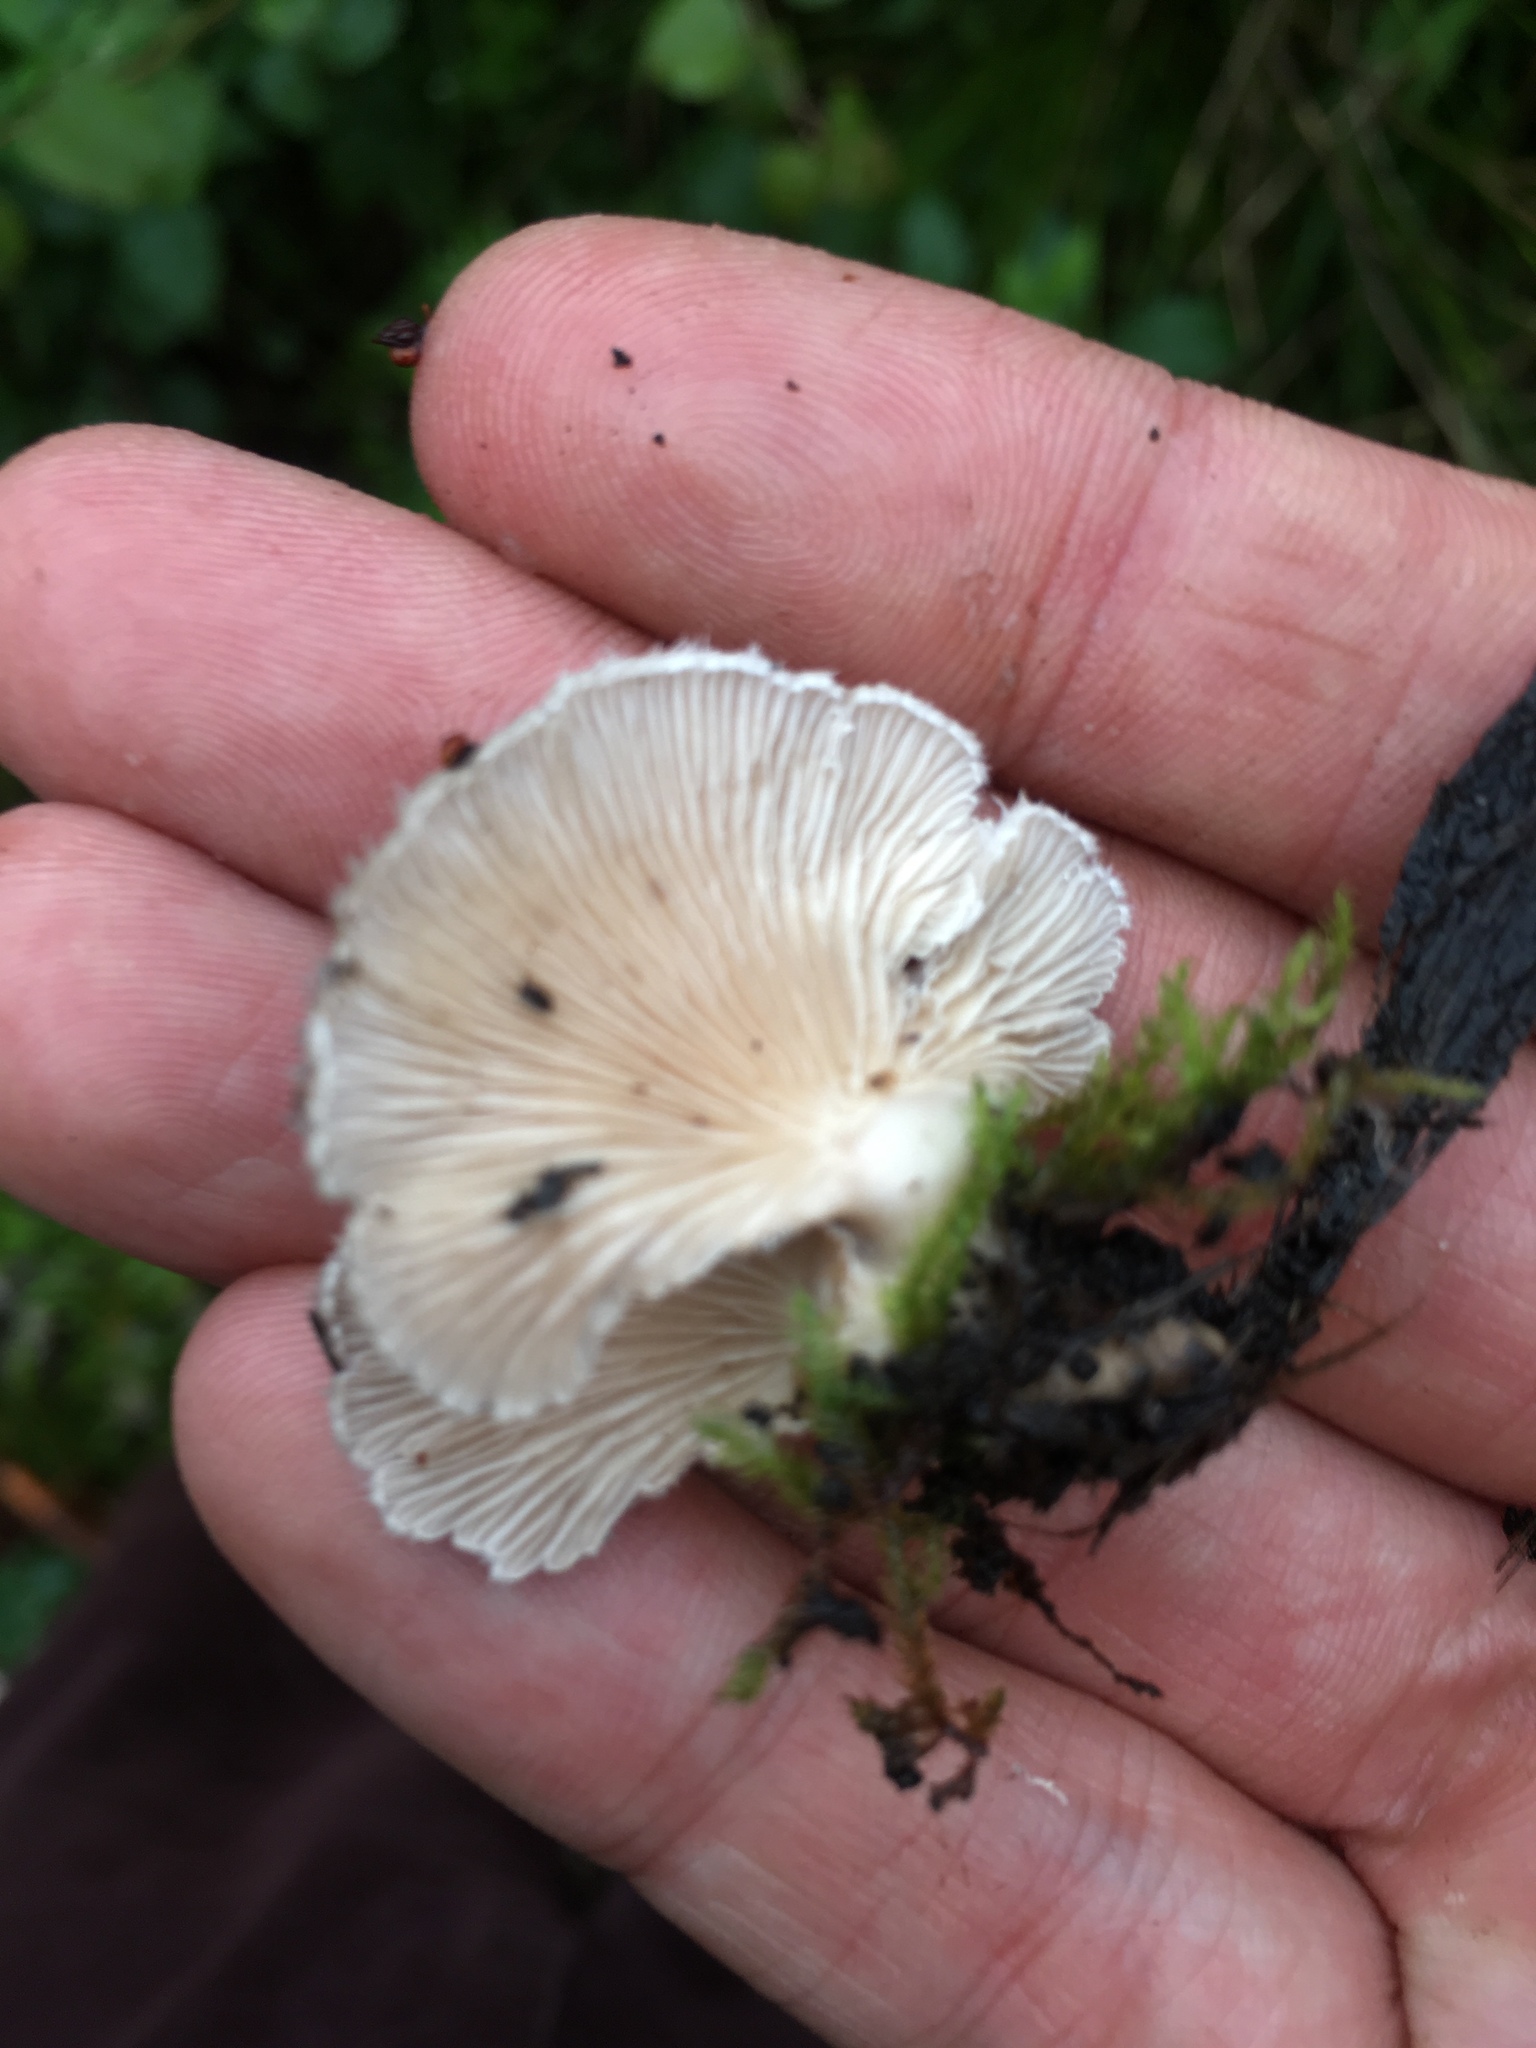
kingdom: Fungi
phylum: Basidiomycota
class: Agaricomycetes
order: Agaricales
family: Schizophyllaceae
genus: Schizophyllum
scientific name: Schizophyllum commune
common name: Common porecrust
